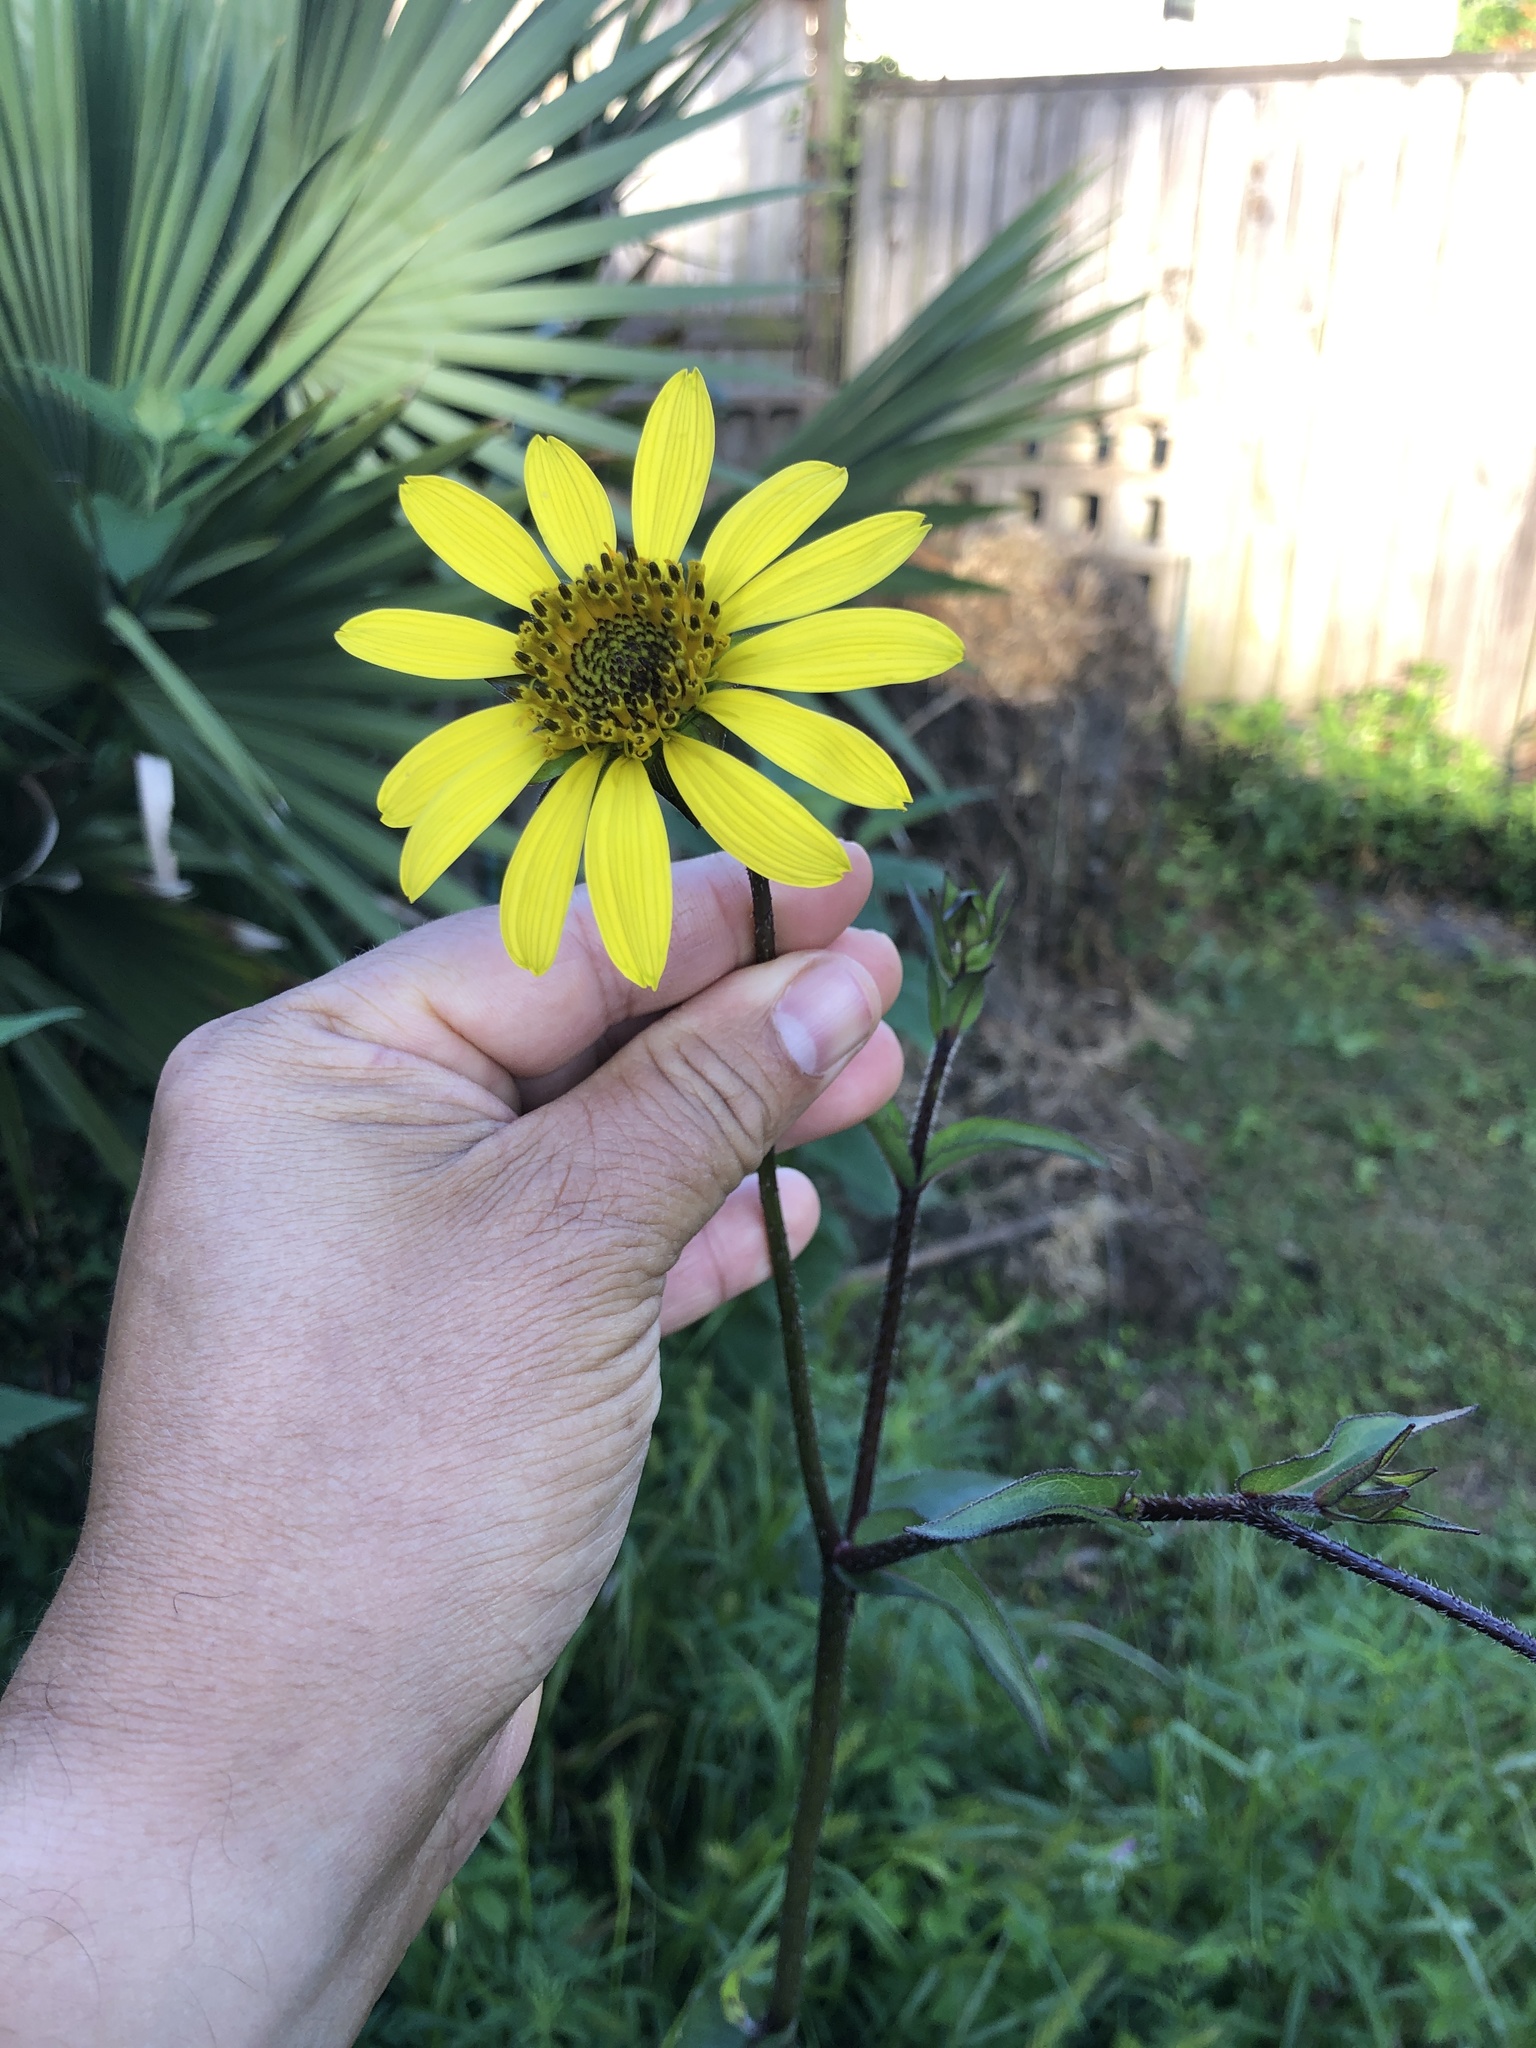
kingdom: Plantae
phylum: Tracheophyta
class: Magnoliopsida
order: Asterales
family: Asteraceae
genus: Silphium
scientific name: Silphium radula
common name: Roughleaf rosinweed
